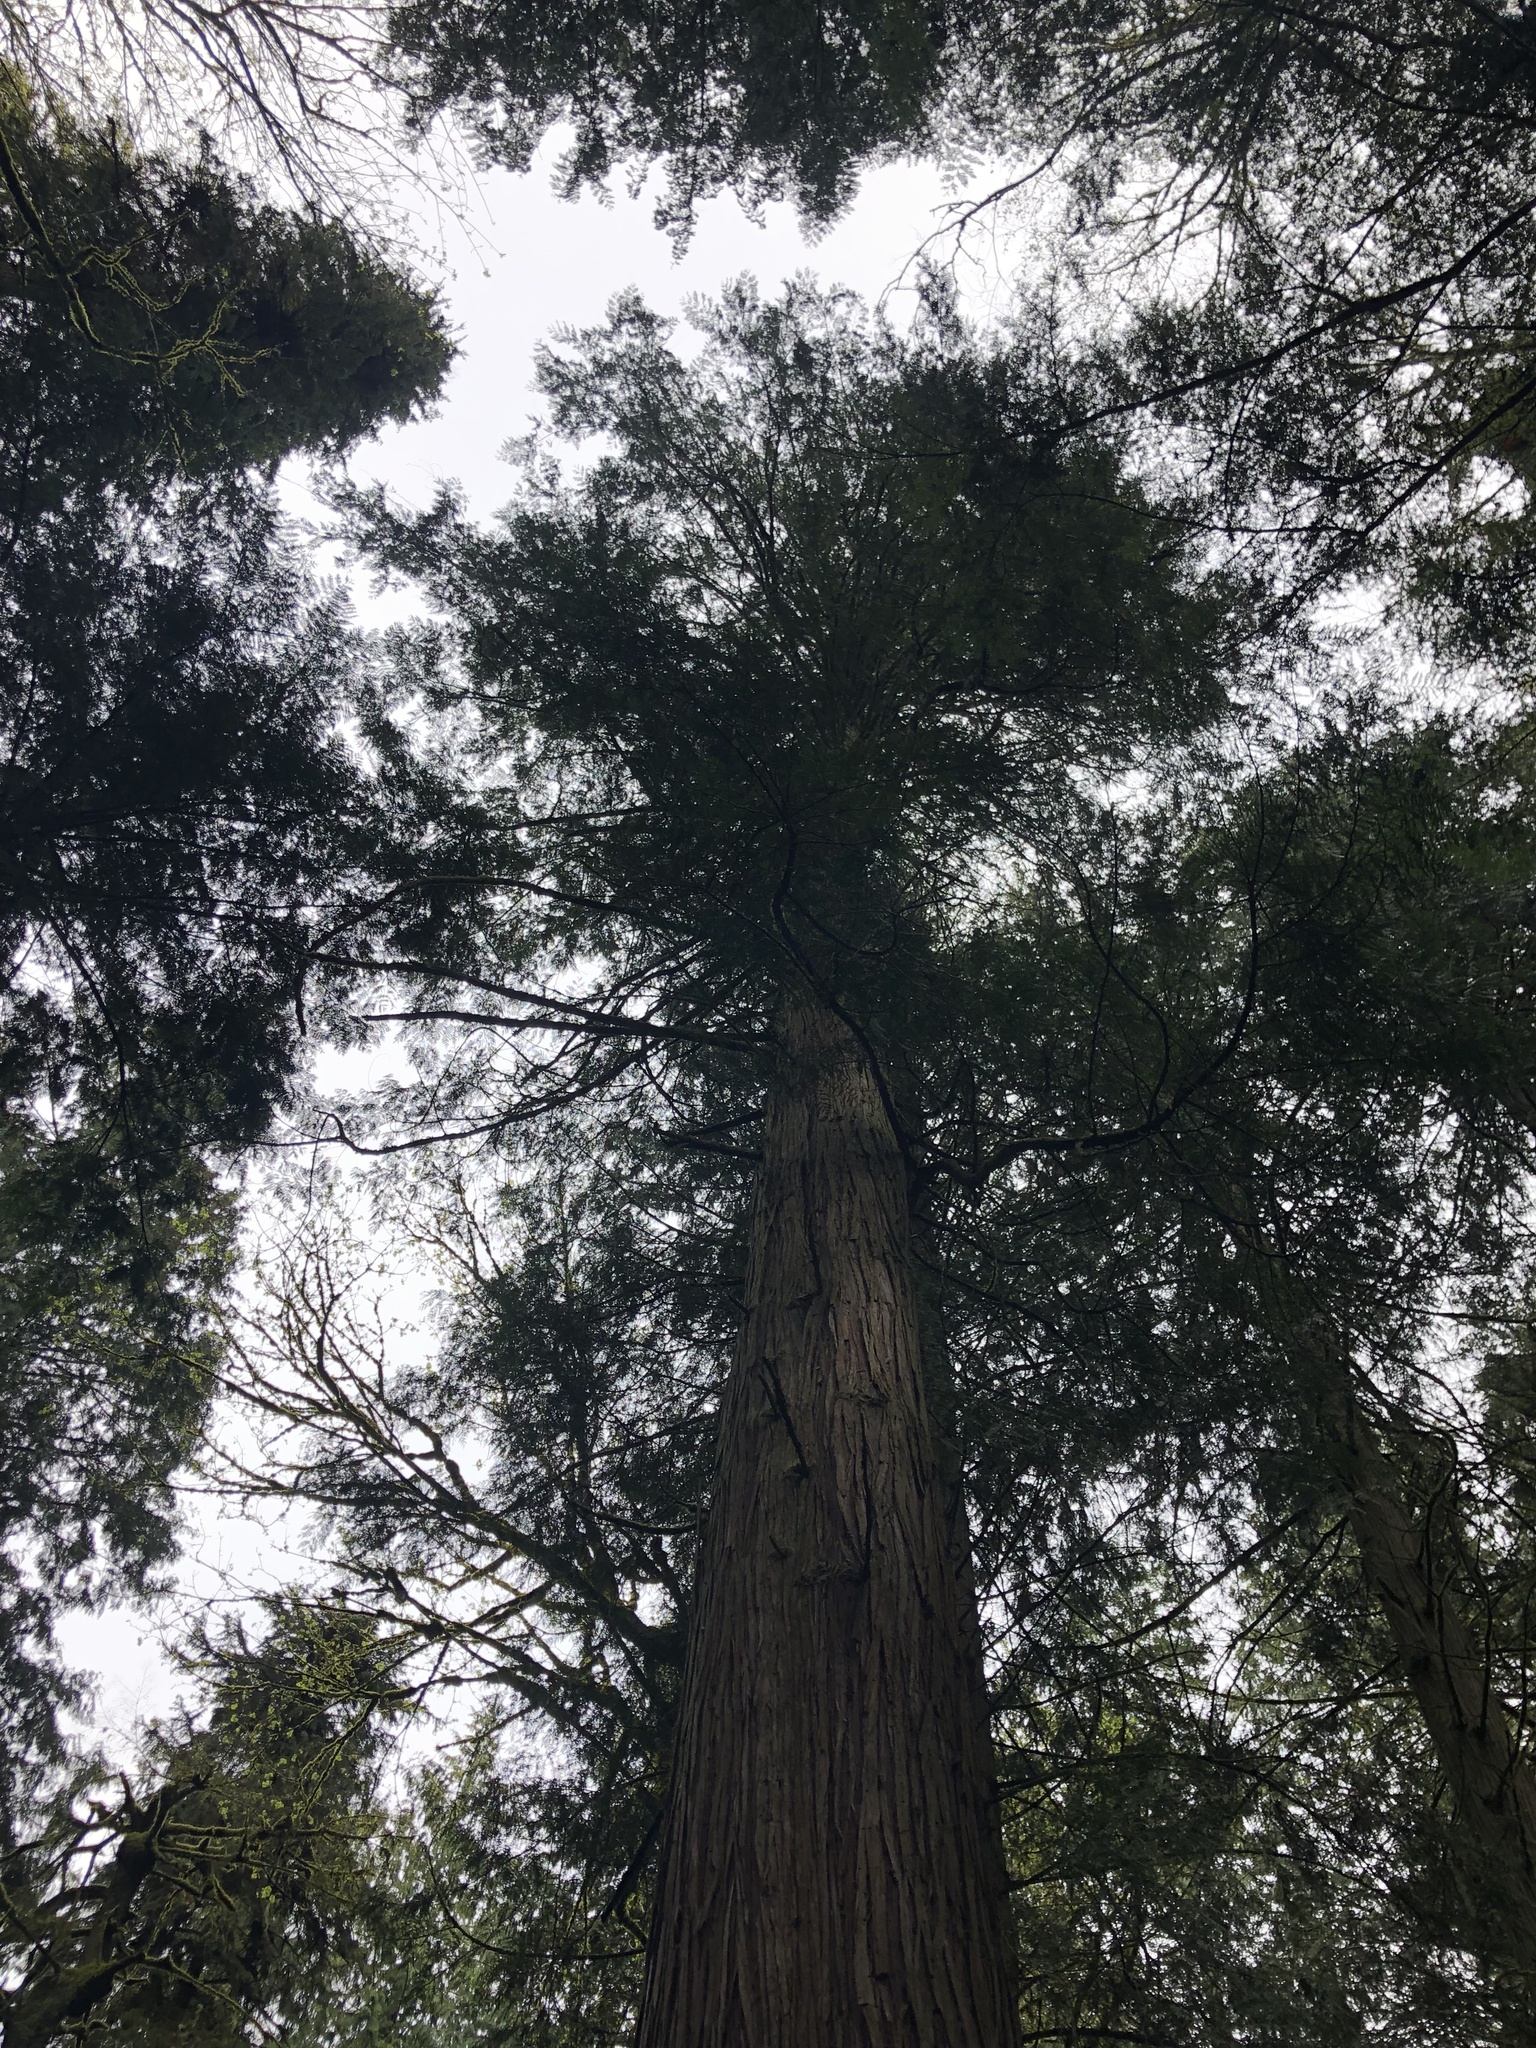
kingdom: Plantae
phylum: Tracheophyta
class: Pinopsida
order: Pinales
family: Cupressaceae
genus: Thuja
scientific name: Thuja plicata
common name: Western red-cedar
